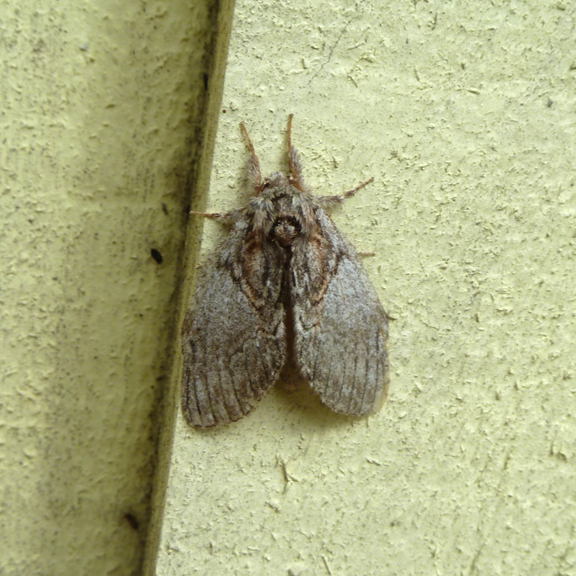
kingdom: Animalia
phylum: Arthropoda
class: Insecta
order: Lepidoptera
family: Notodontidae
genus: Peridea
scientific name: Peridea basitriens
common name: Oval-based prominent
